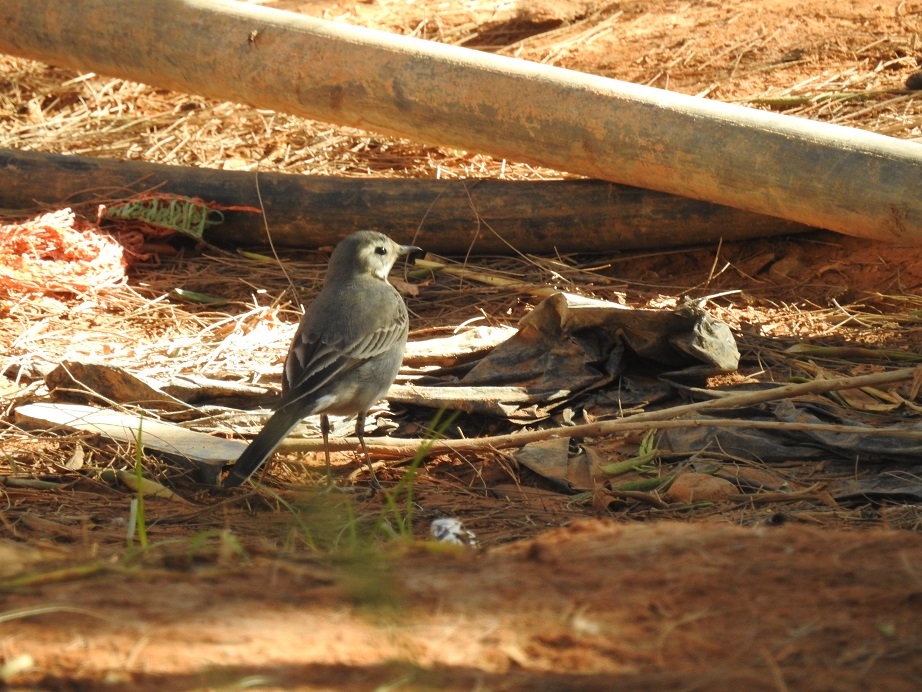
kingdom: Animalia
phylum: Chordata
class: Aves
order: Passeriformes
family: Motacillidae
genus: Motacilla
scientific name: Motacilla alba
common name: White wagtail
